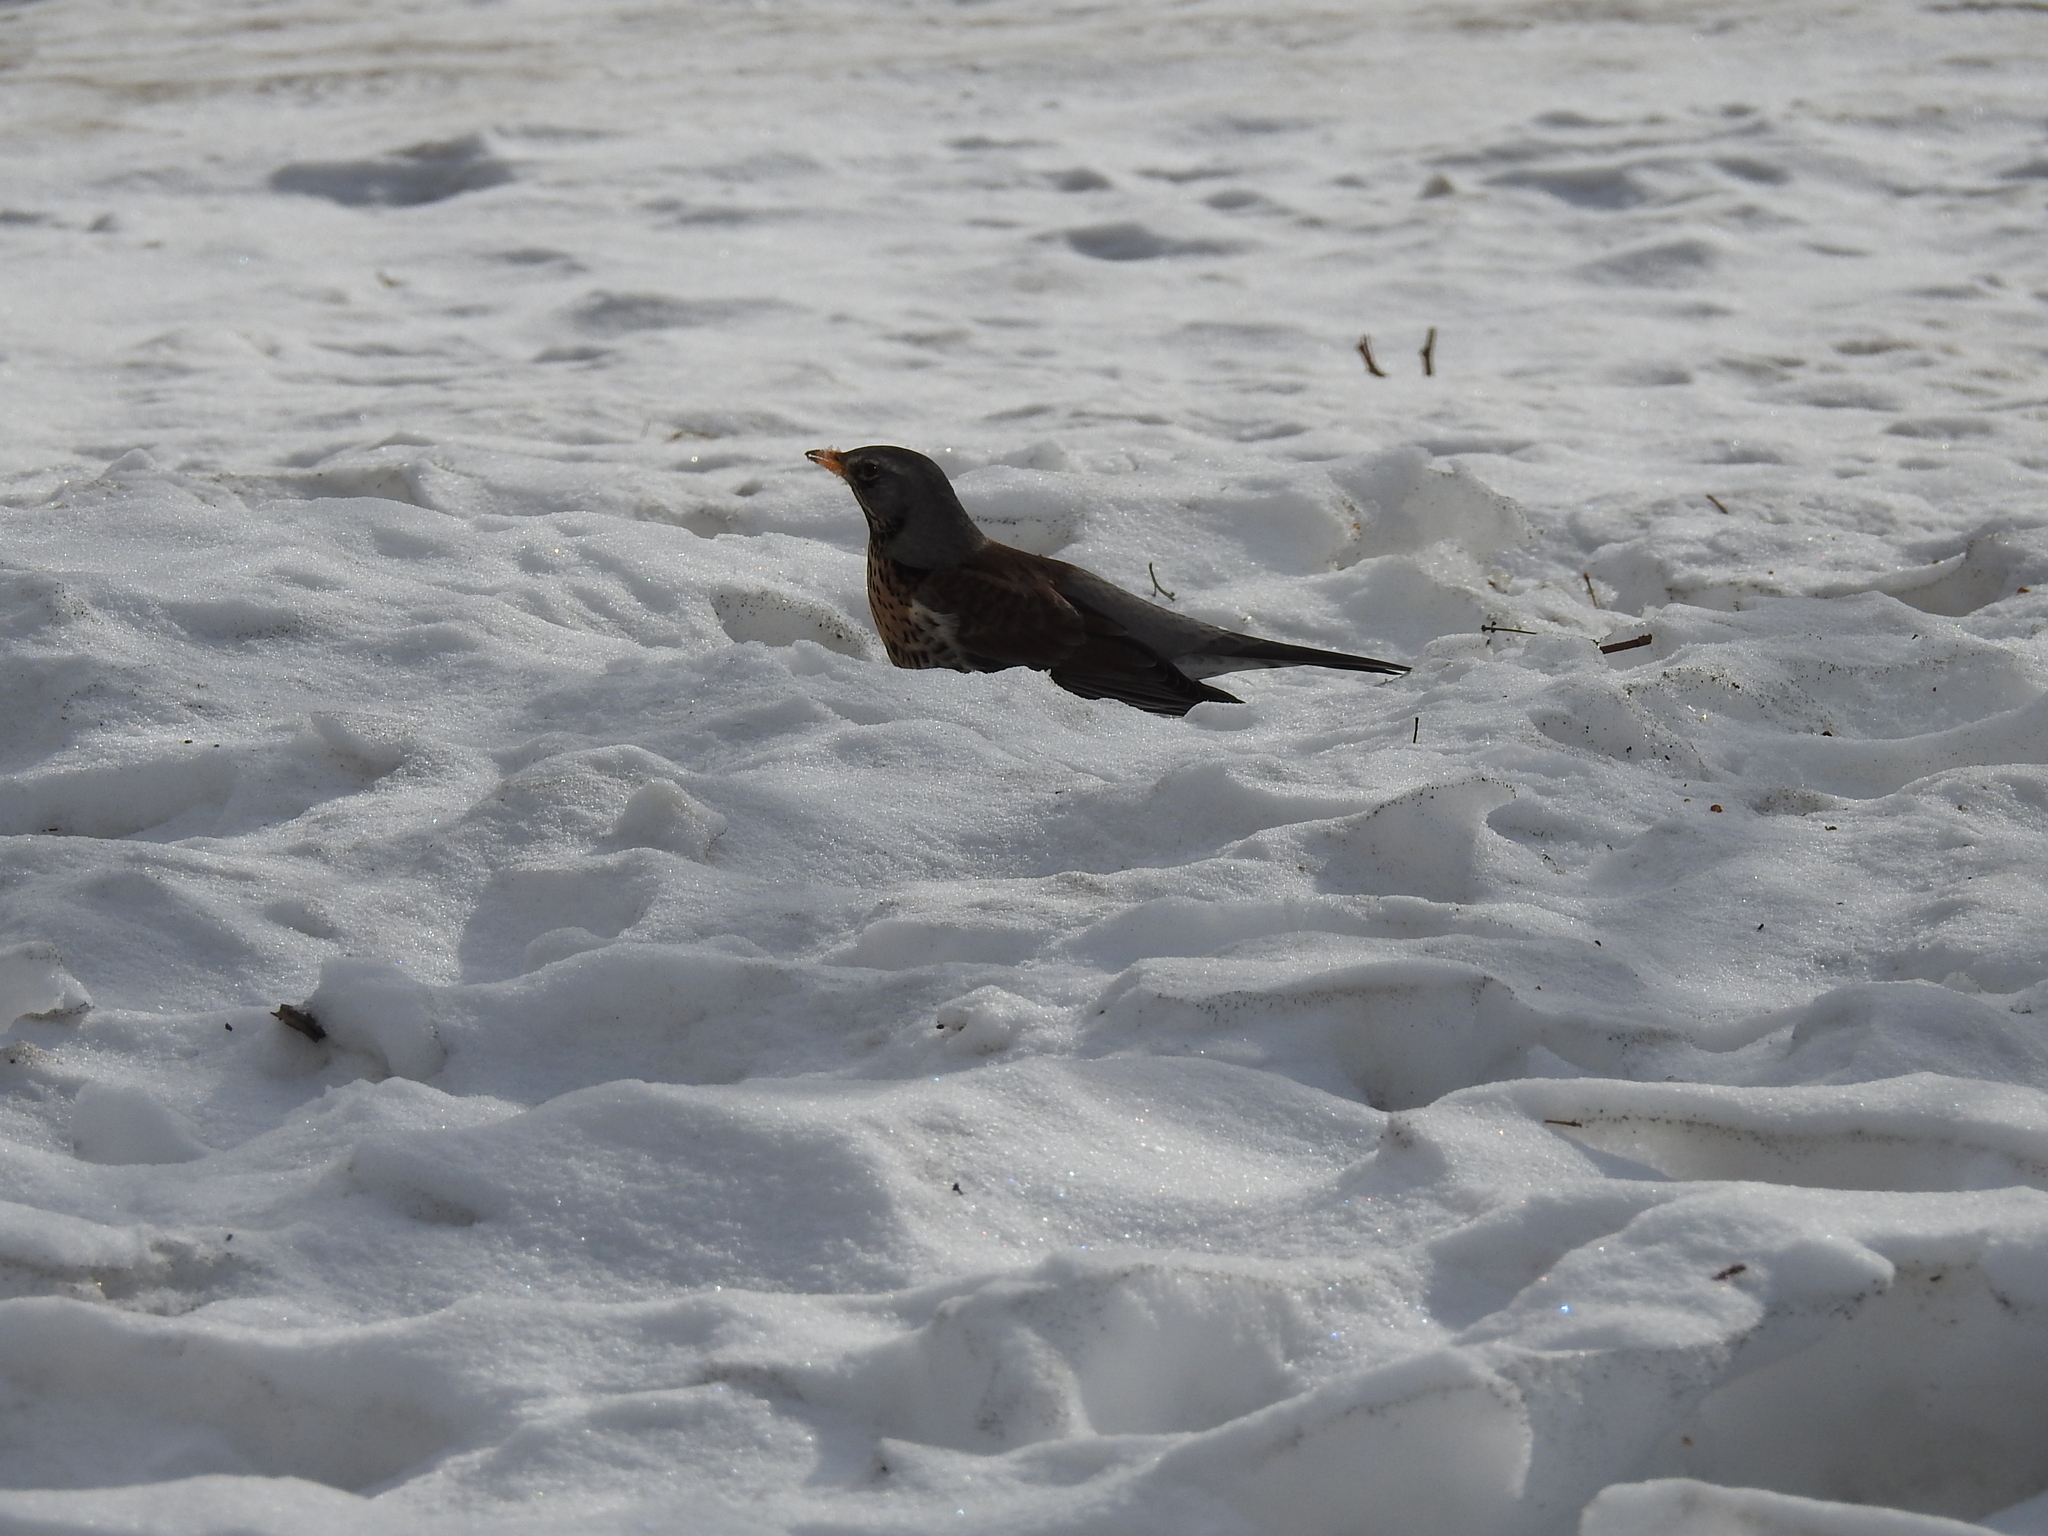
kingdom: Animalia
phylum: Chordata
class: Aves
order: Passeriformes
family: Turdidae
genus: Turdus
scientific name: Turdus pilaris
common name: Fieldfare
